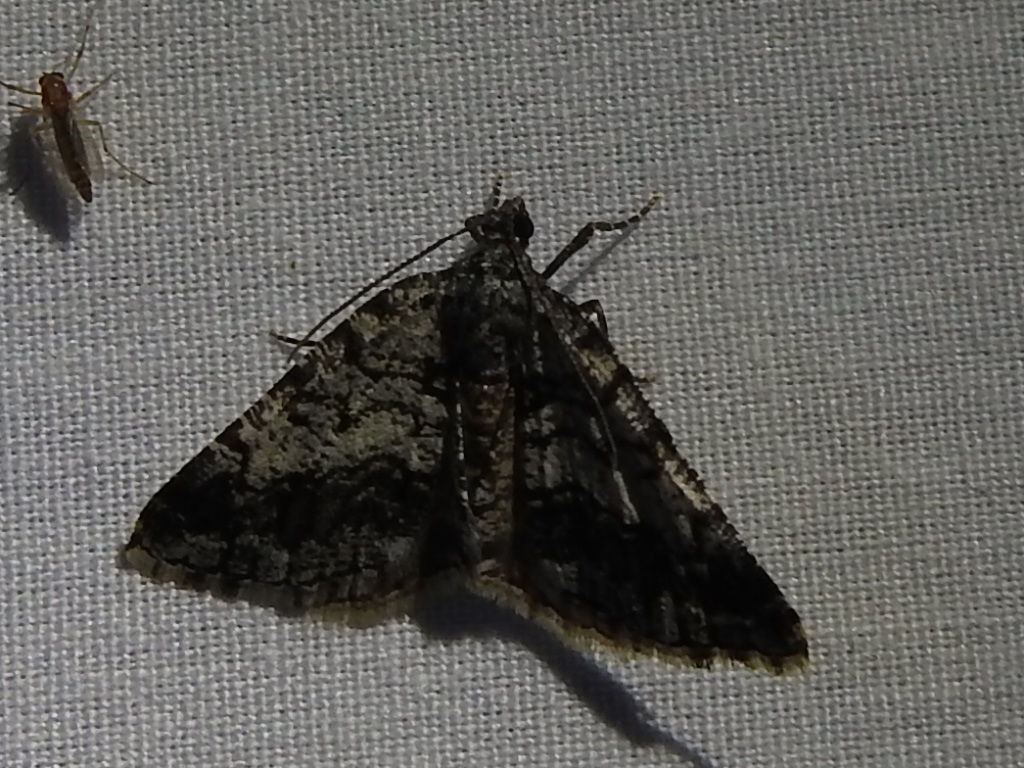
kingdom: Animalia
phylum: Arthropoda
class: Insecta
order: Lepidoptera
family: Geometridae
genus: Macaria
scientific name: Macaria graphidaria
